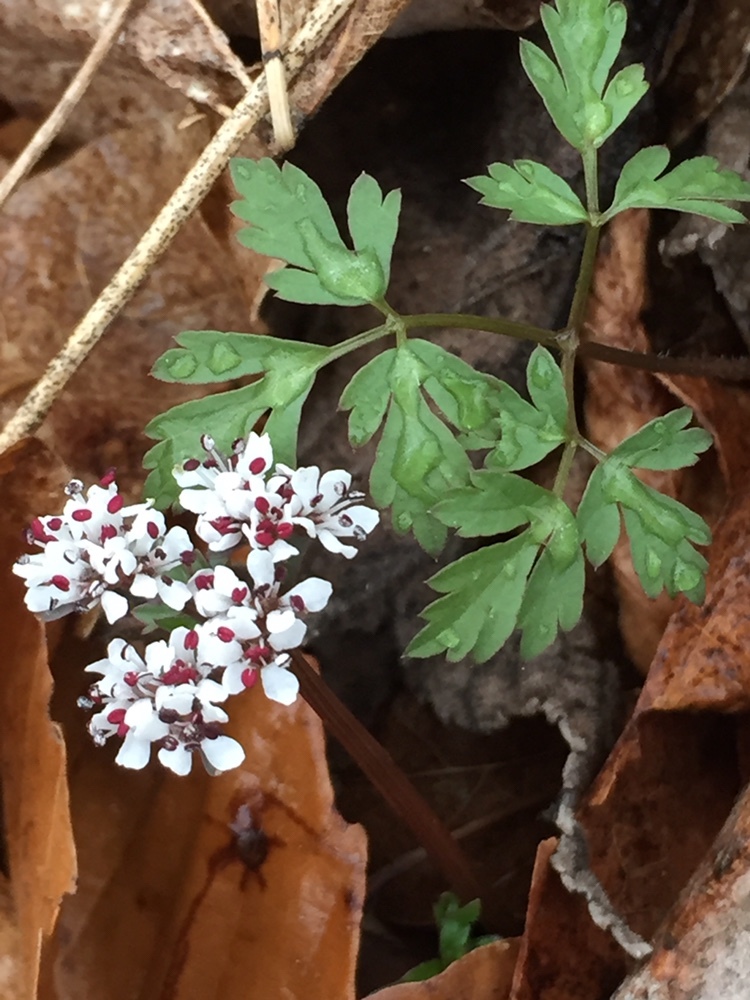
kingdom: Plantae
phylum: Tracheophyta
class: Magnoliopsida
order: Apiales
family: Apiaceae
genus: Erigenia
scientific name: Erigenia bulbosa
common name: Pepper-and-salt
